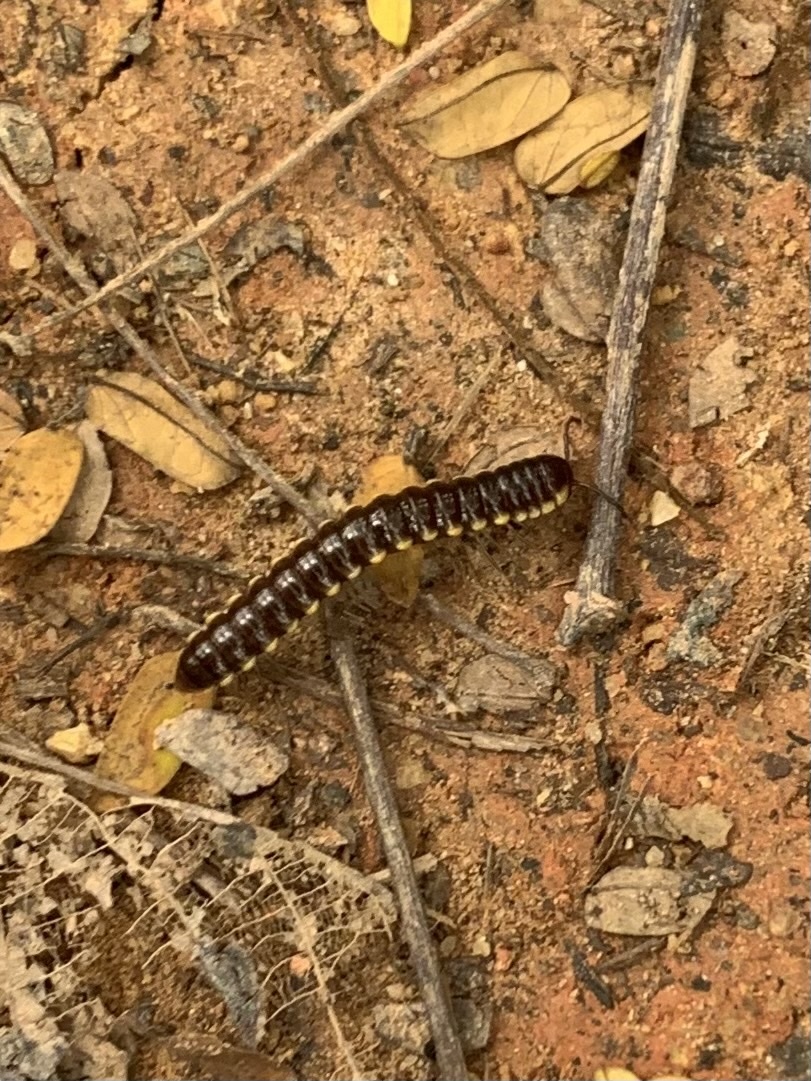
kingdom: Animalia
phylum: Arthropoda
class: Diplopoda
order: Polydesmida
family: Paradoxosomatidae
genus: Anoplodesmus
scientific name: Anoplodesmus saussurii
